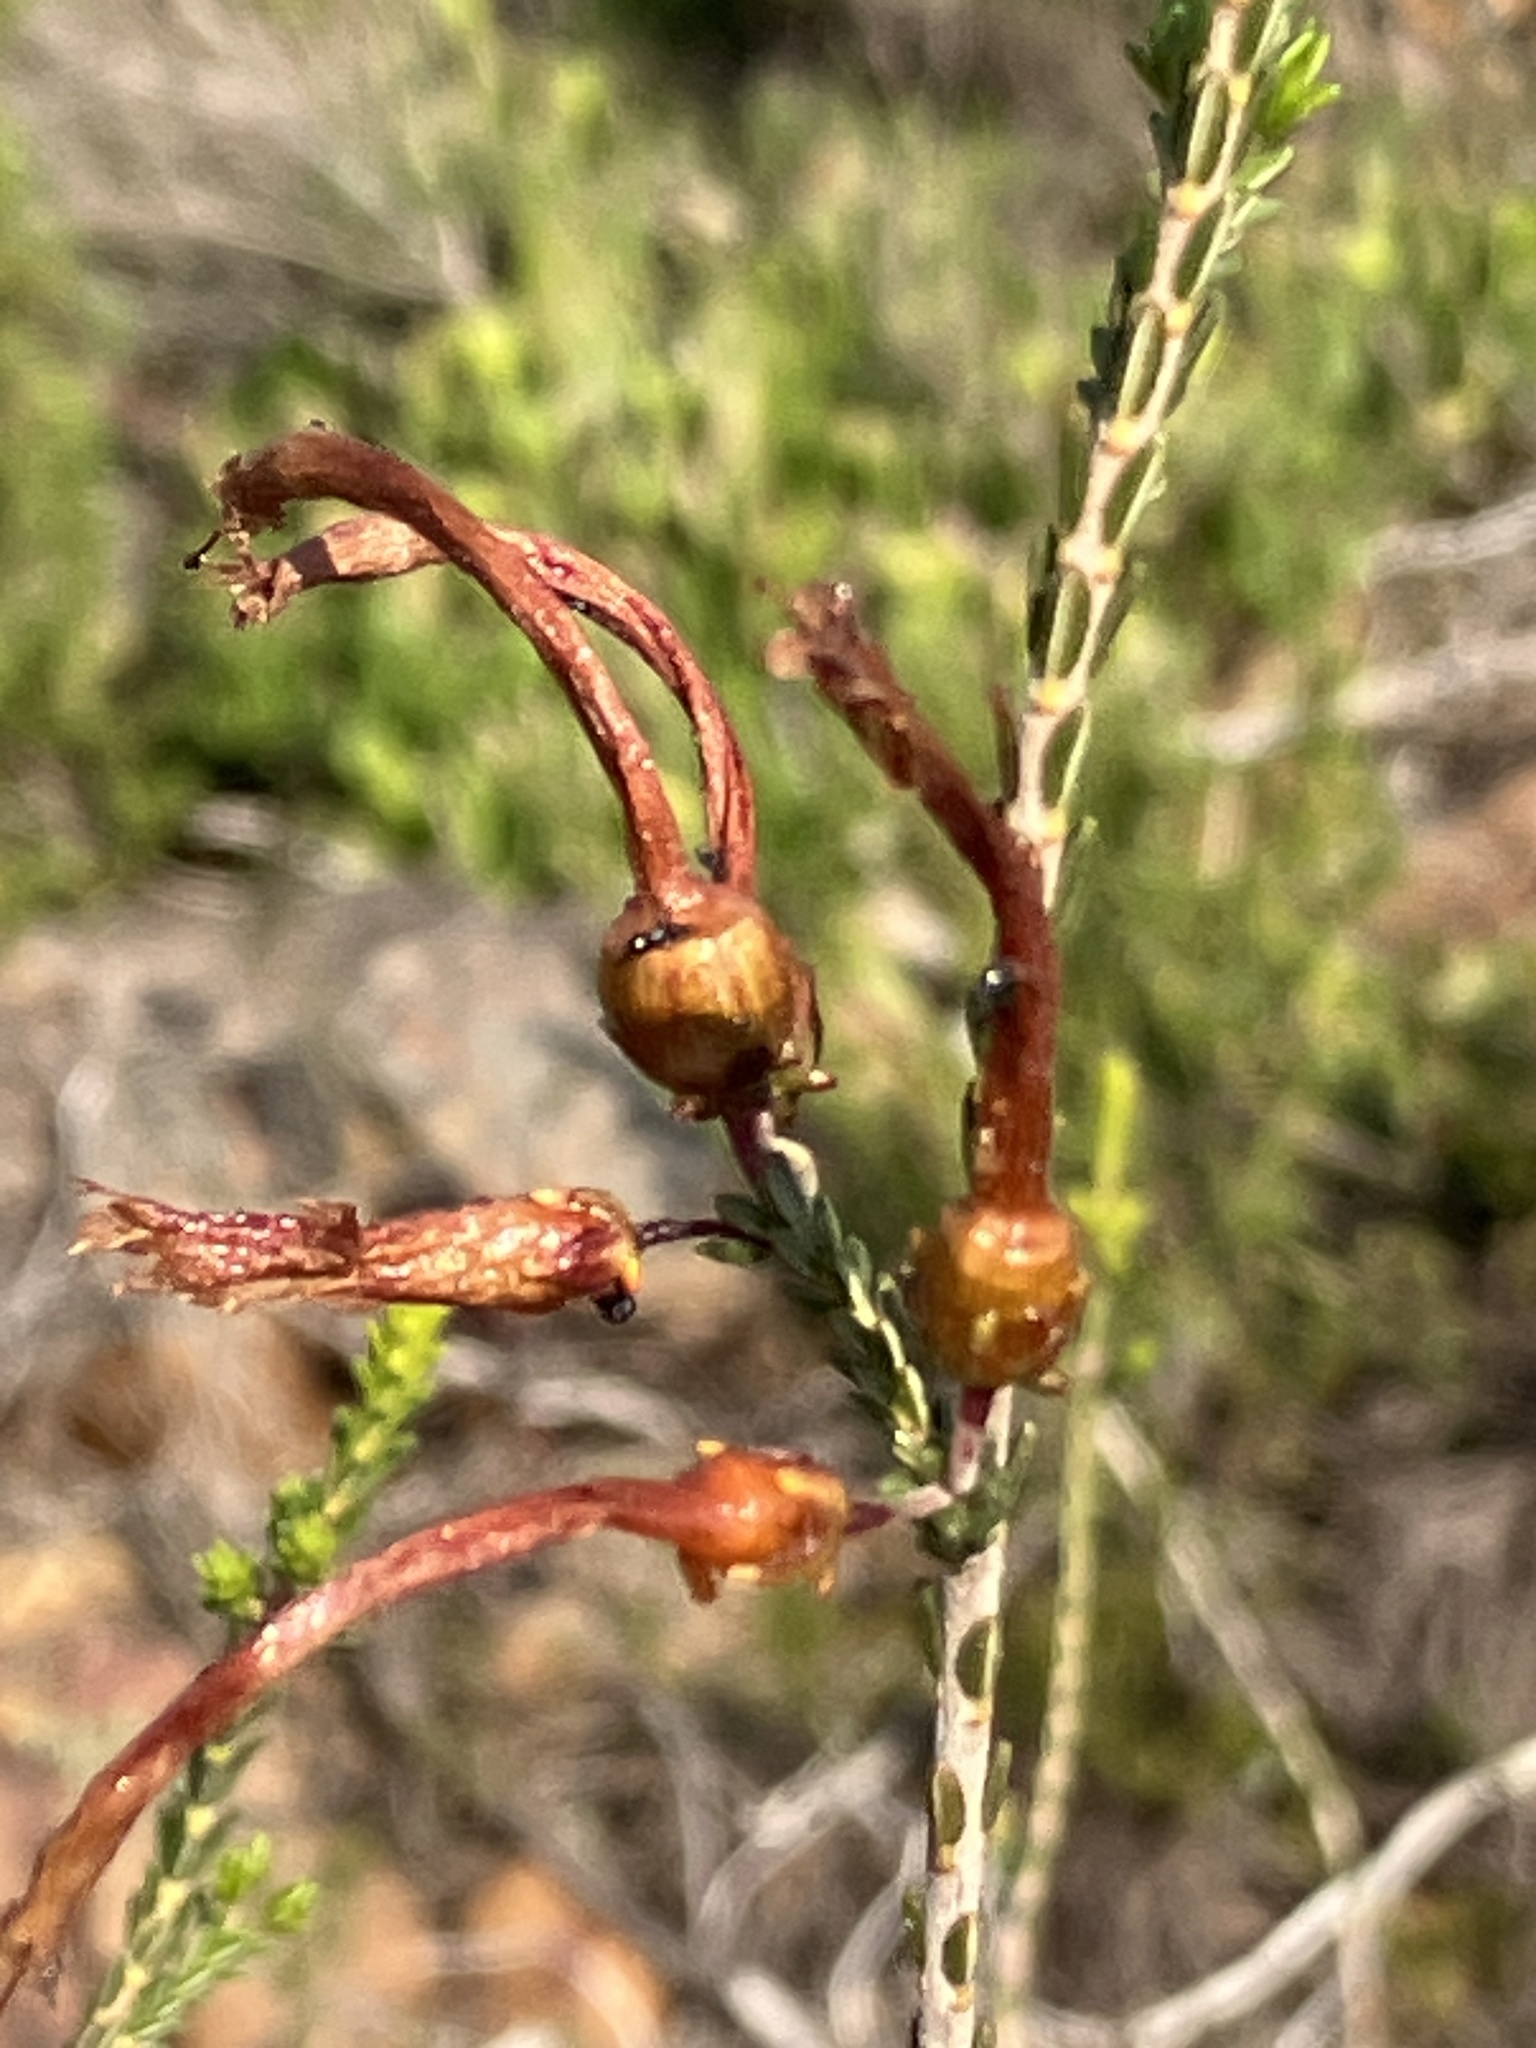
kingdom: Plantae
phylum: Tracheophyta
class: Magnoliopsida
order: Ericales
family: Ericaceae
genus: Erica
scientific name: Erica prolata
